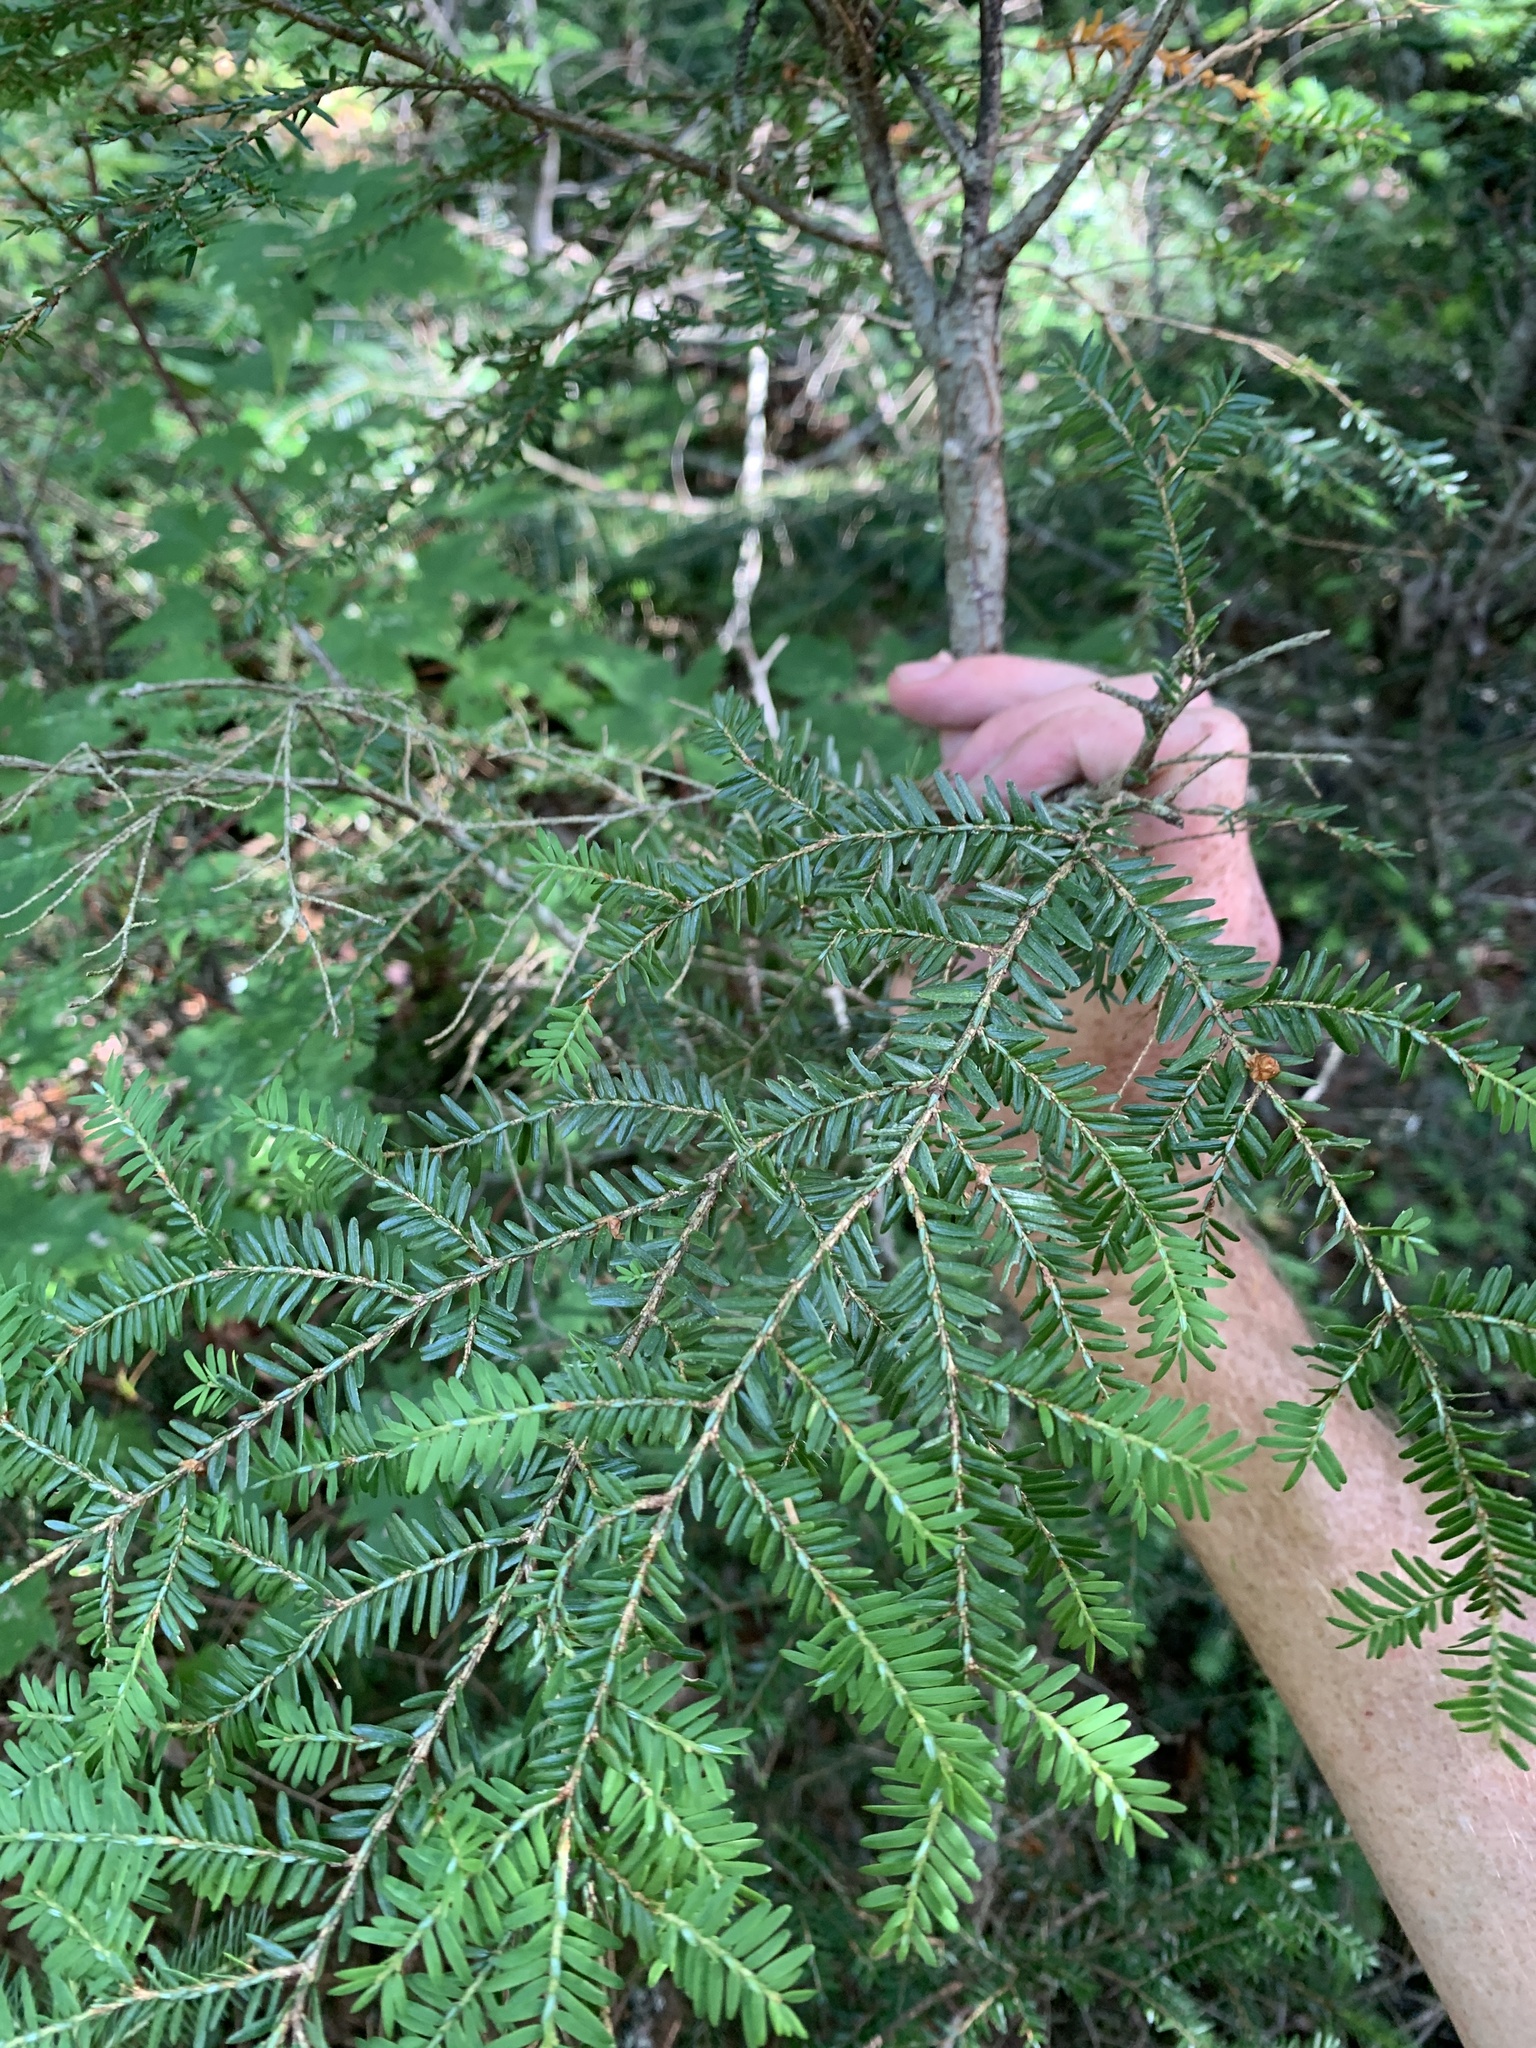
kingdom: Plantae
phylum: Tracheophyta
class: Pinopsida
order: Pinales
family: Pinaceae
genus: Tsuga
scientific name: Tsuga canadensis
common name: Eastern hemlock
